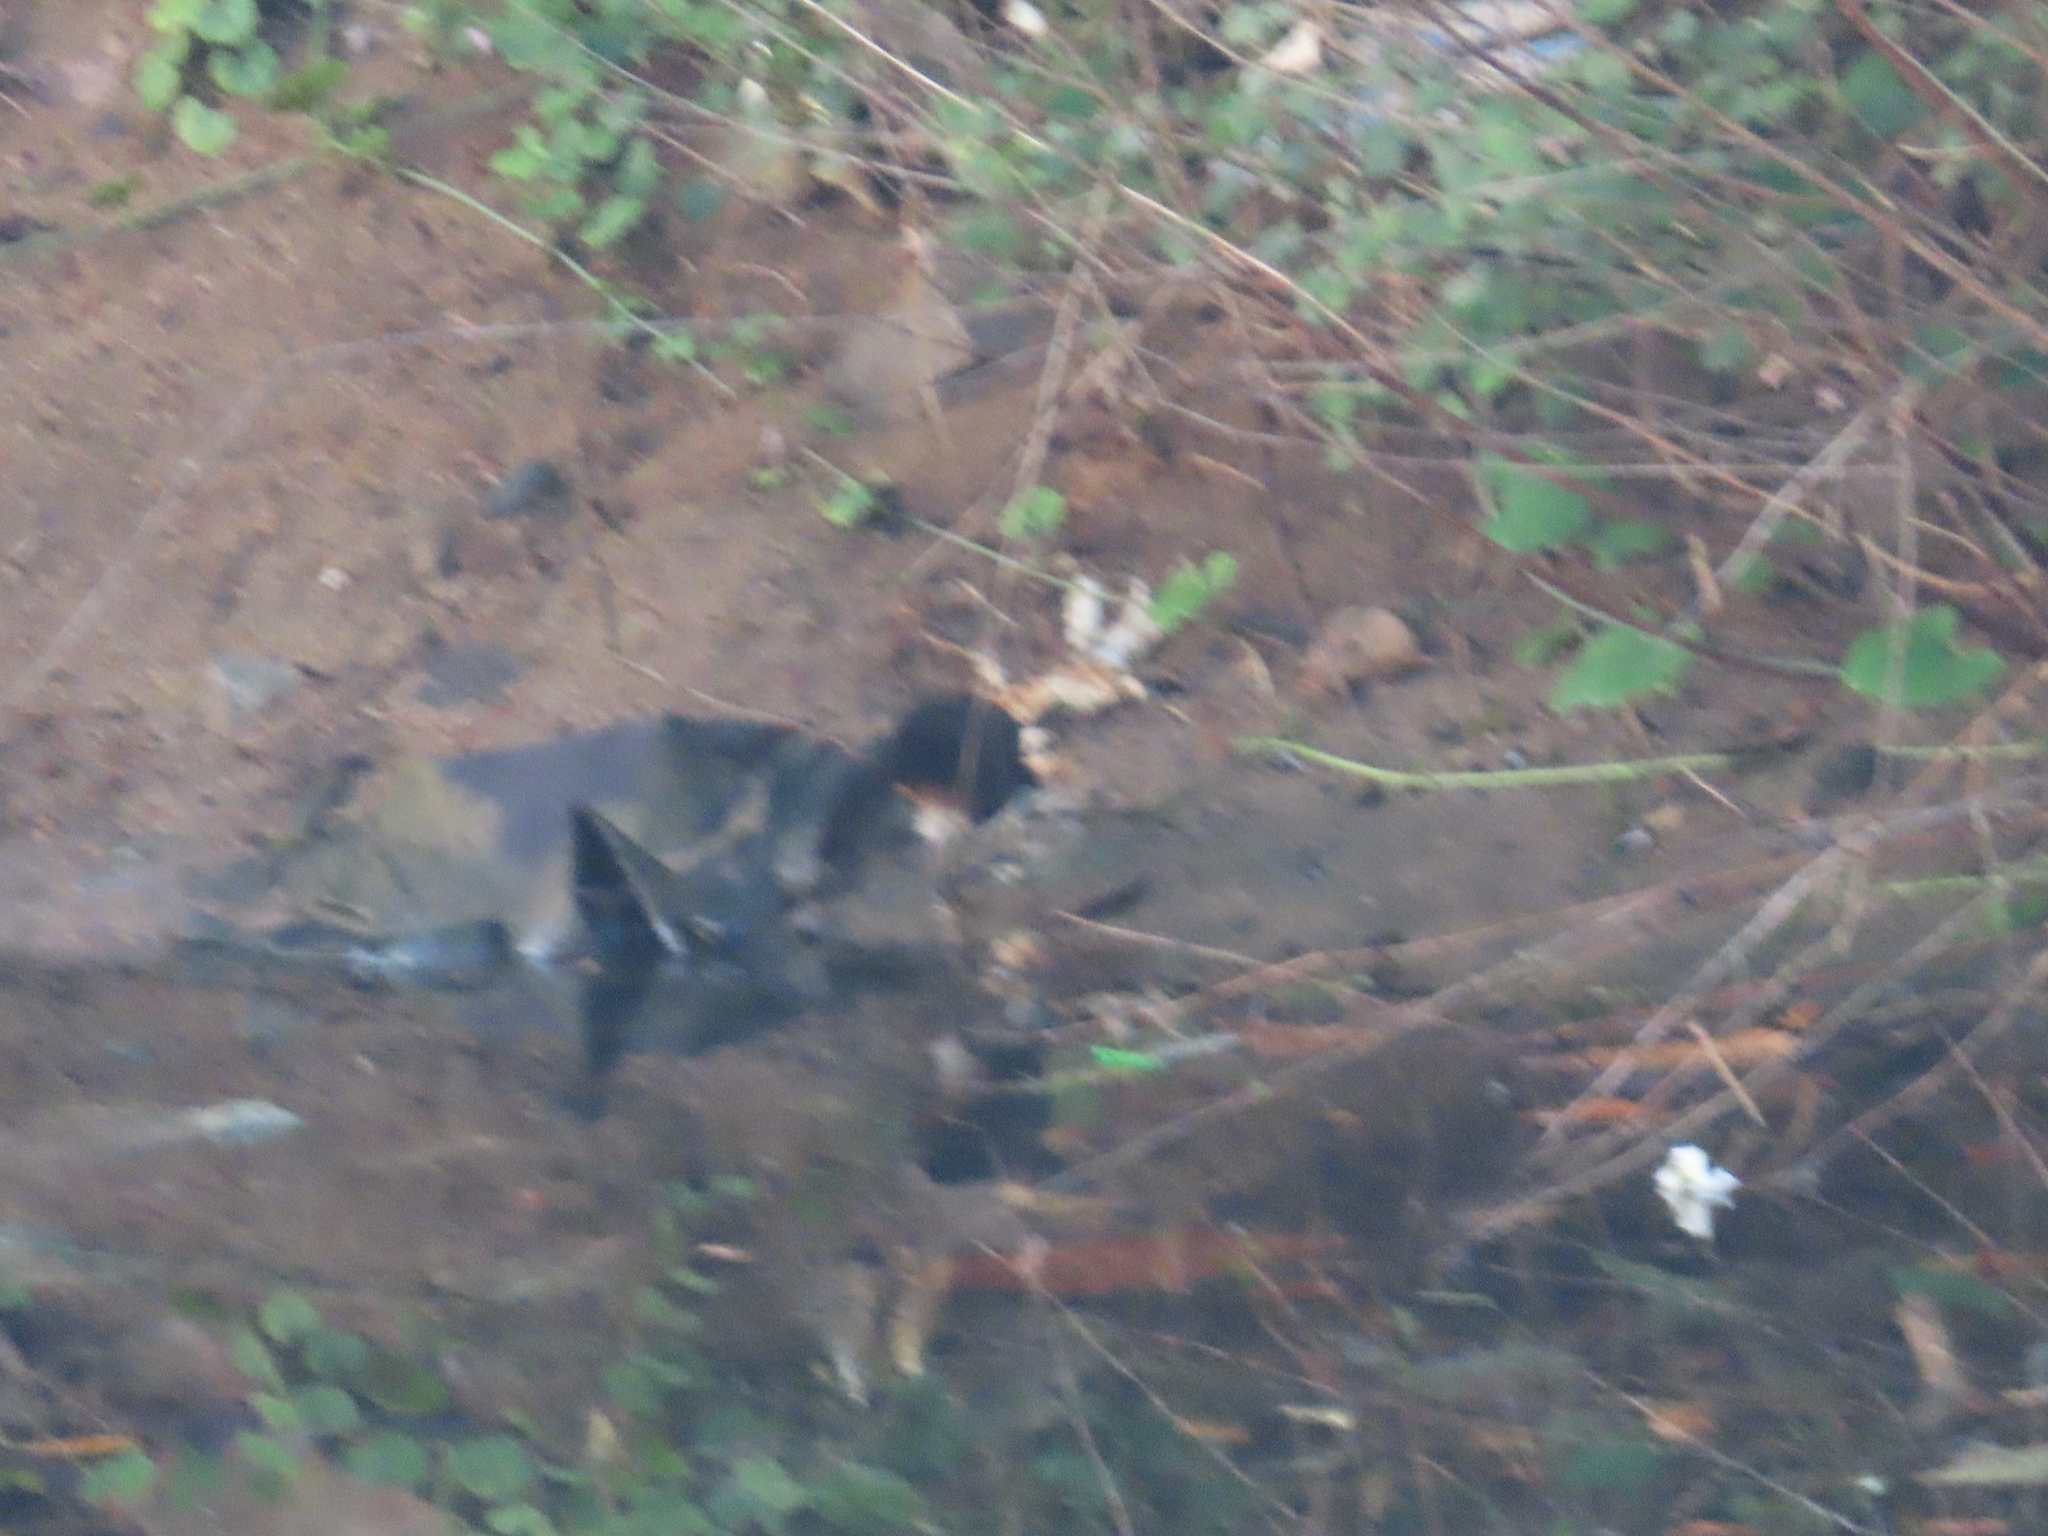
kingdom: Animalia
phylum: Chordata
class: Aves
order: Gruiformes
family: Rallidae
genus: Amaurornis
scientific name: Amaurornis phoenicurus
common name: White-breasted waterhen
